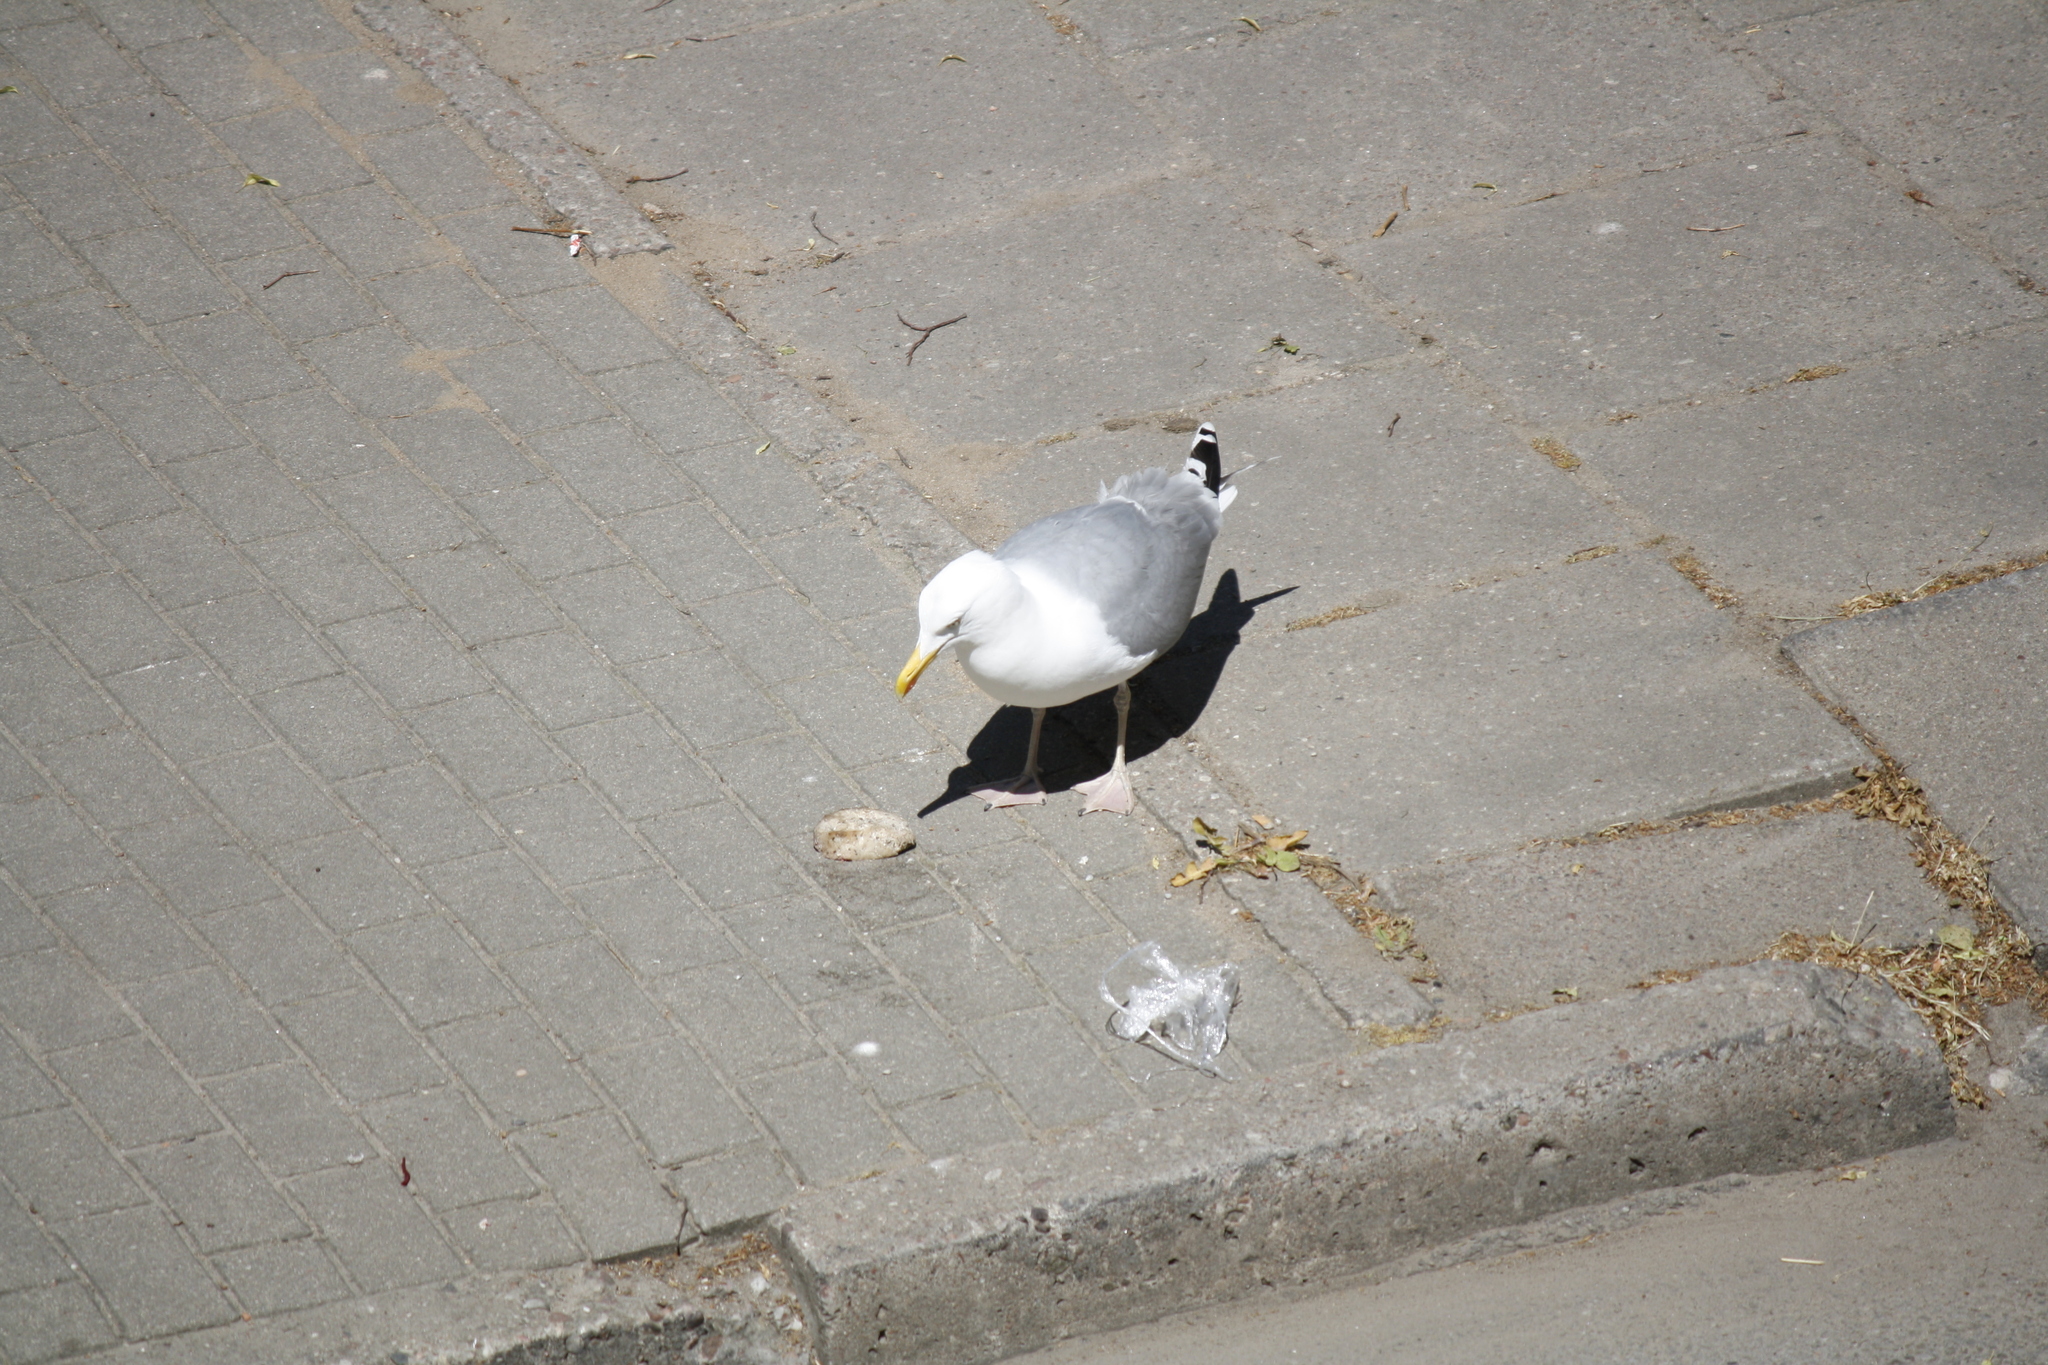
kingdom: Animalia
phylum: Chordata
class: Aves
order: Charadriiformes
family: Laridae
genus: Larus
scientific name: Larus argentatus
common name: Herring gull
